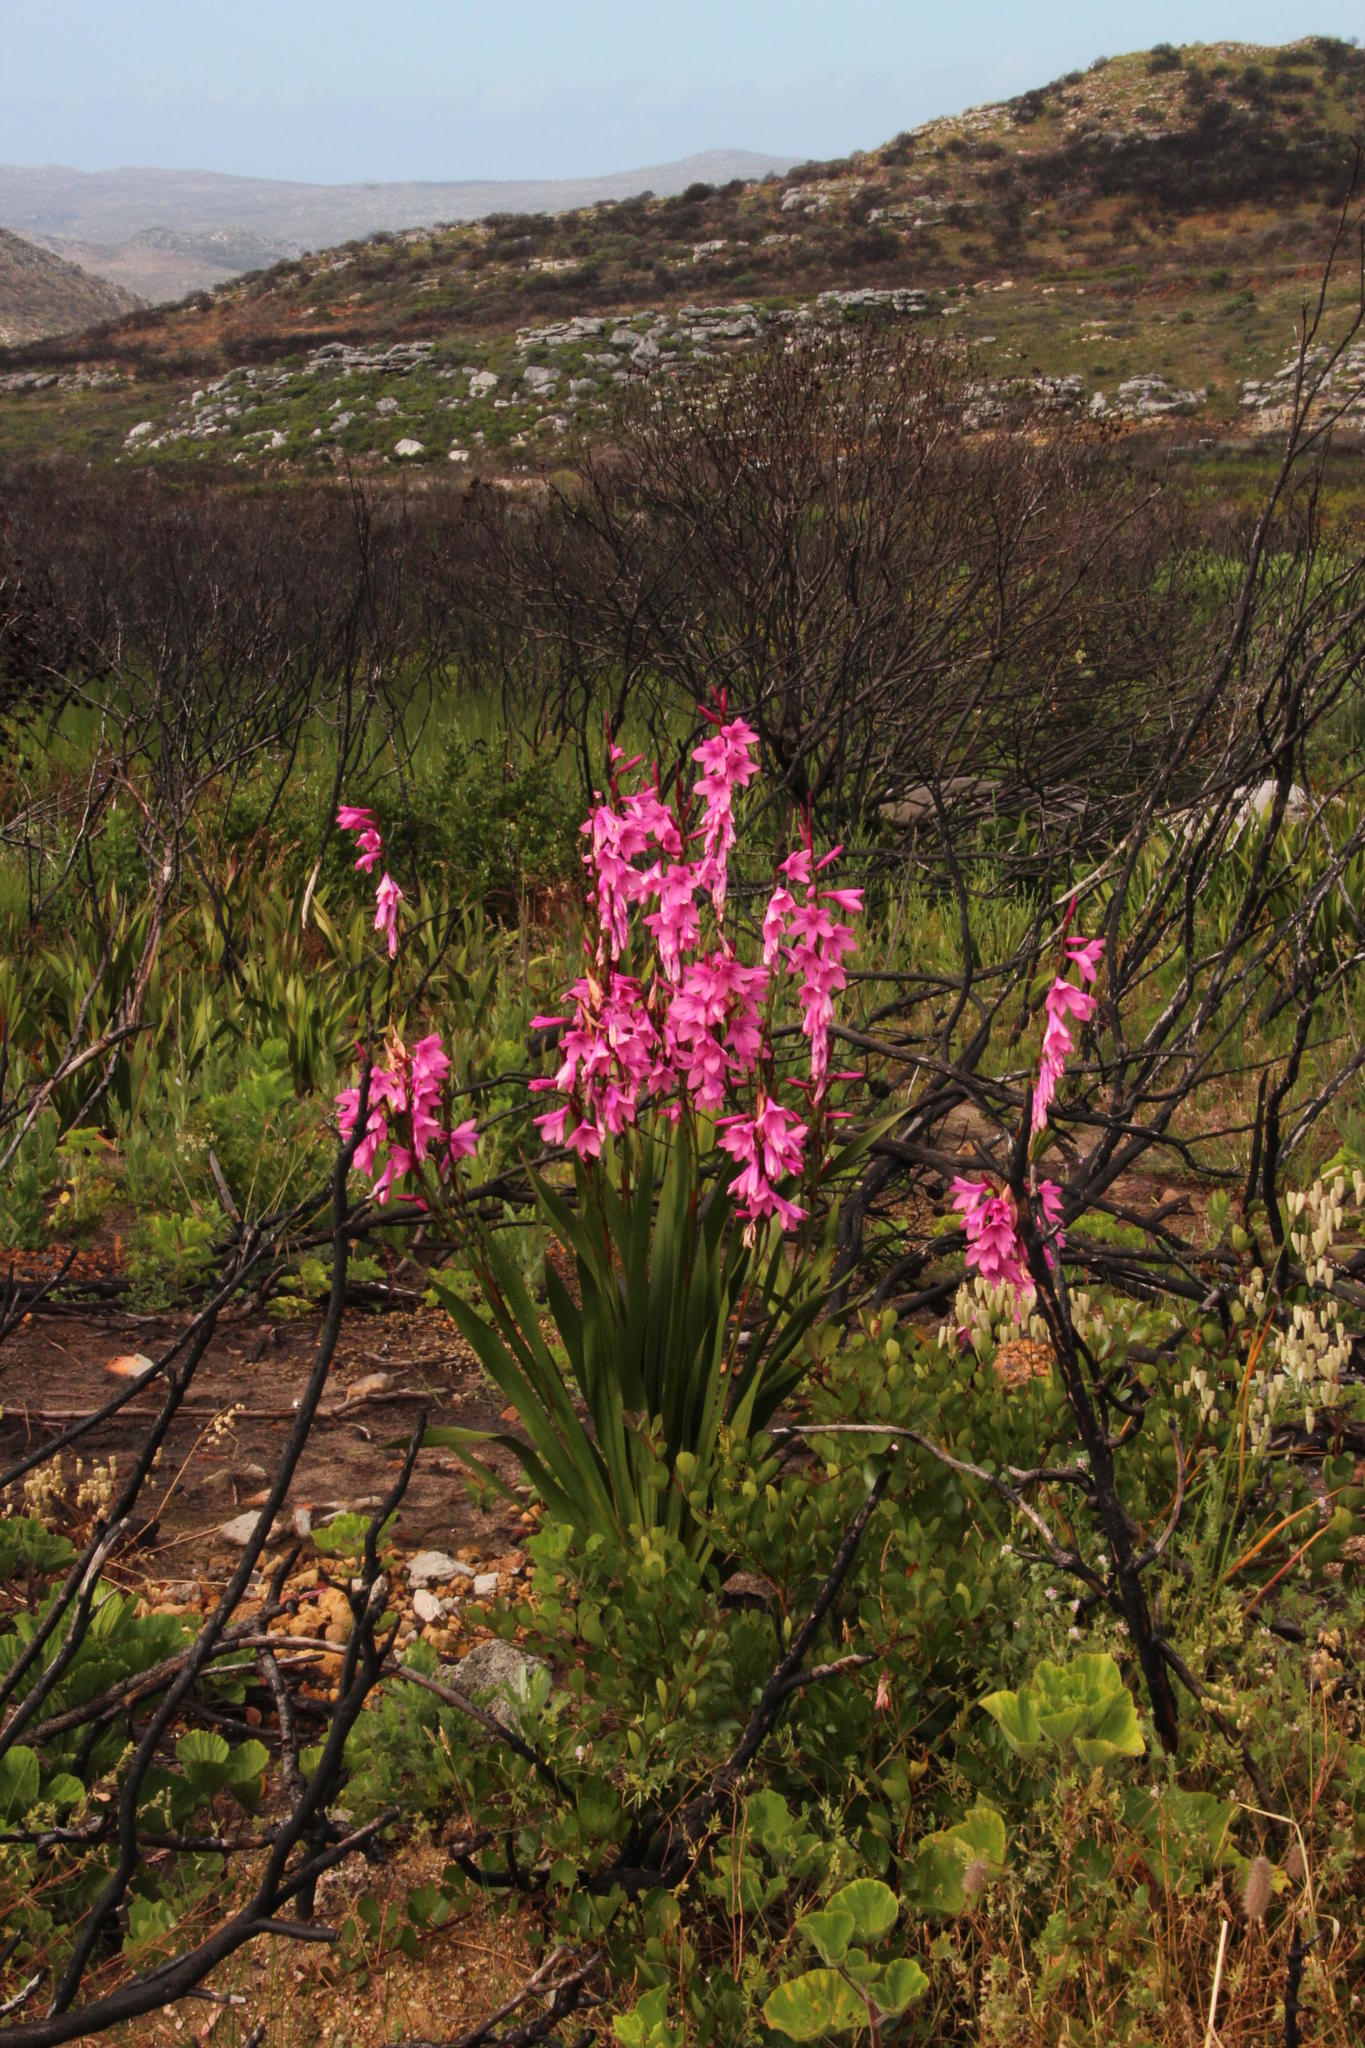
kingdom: Plantae
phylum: Tracheophyta
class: Liliopsida
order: Asparagales
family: Iridaceae
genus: Watsonia
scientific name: Watsonia borbonica
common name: Bugle-lily
